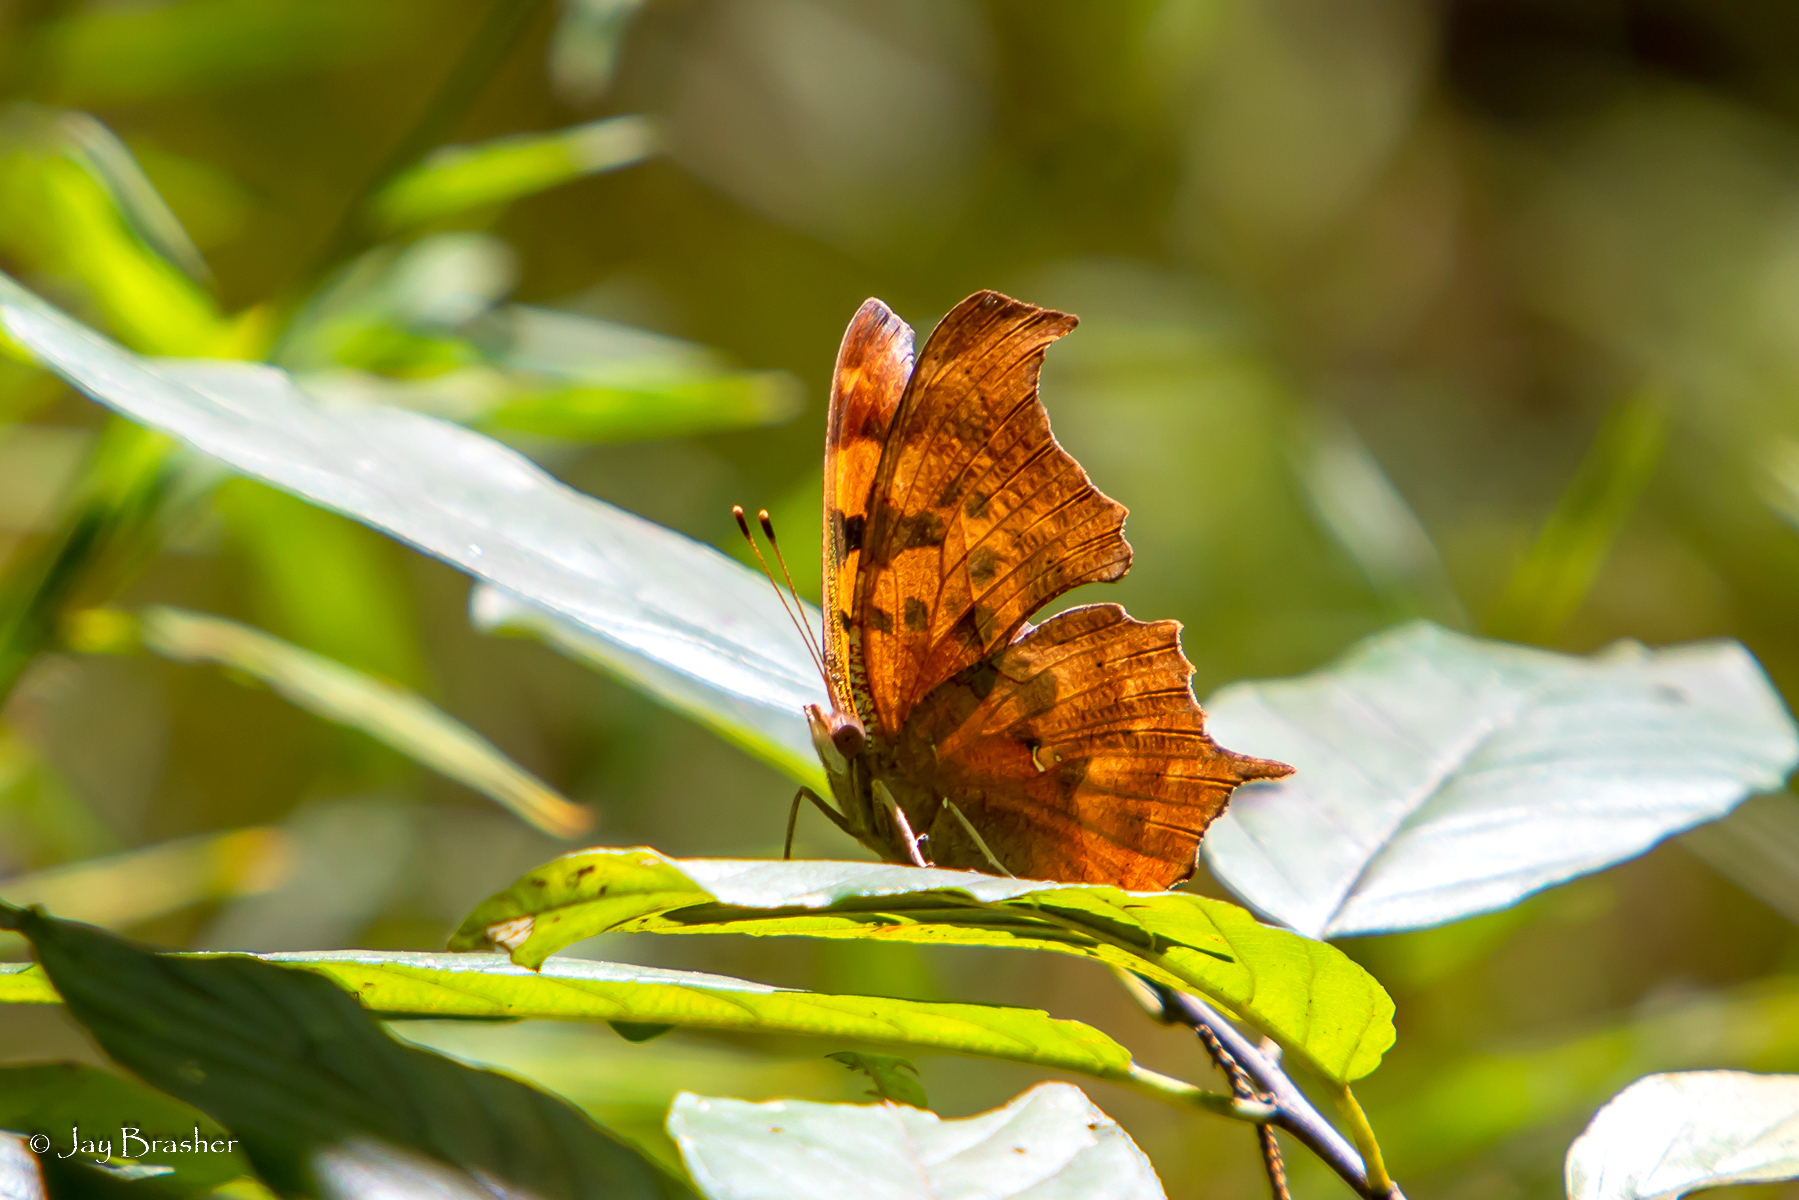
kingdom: Animalia
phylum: Arthropoda
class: Insecta
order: Lepidoptera
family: Nymphalidae
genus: Polygonia
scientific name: Polygonia interrogationis
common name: Question mark
